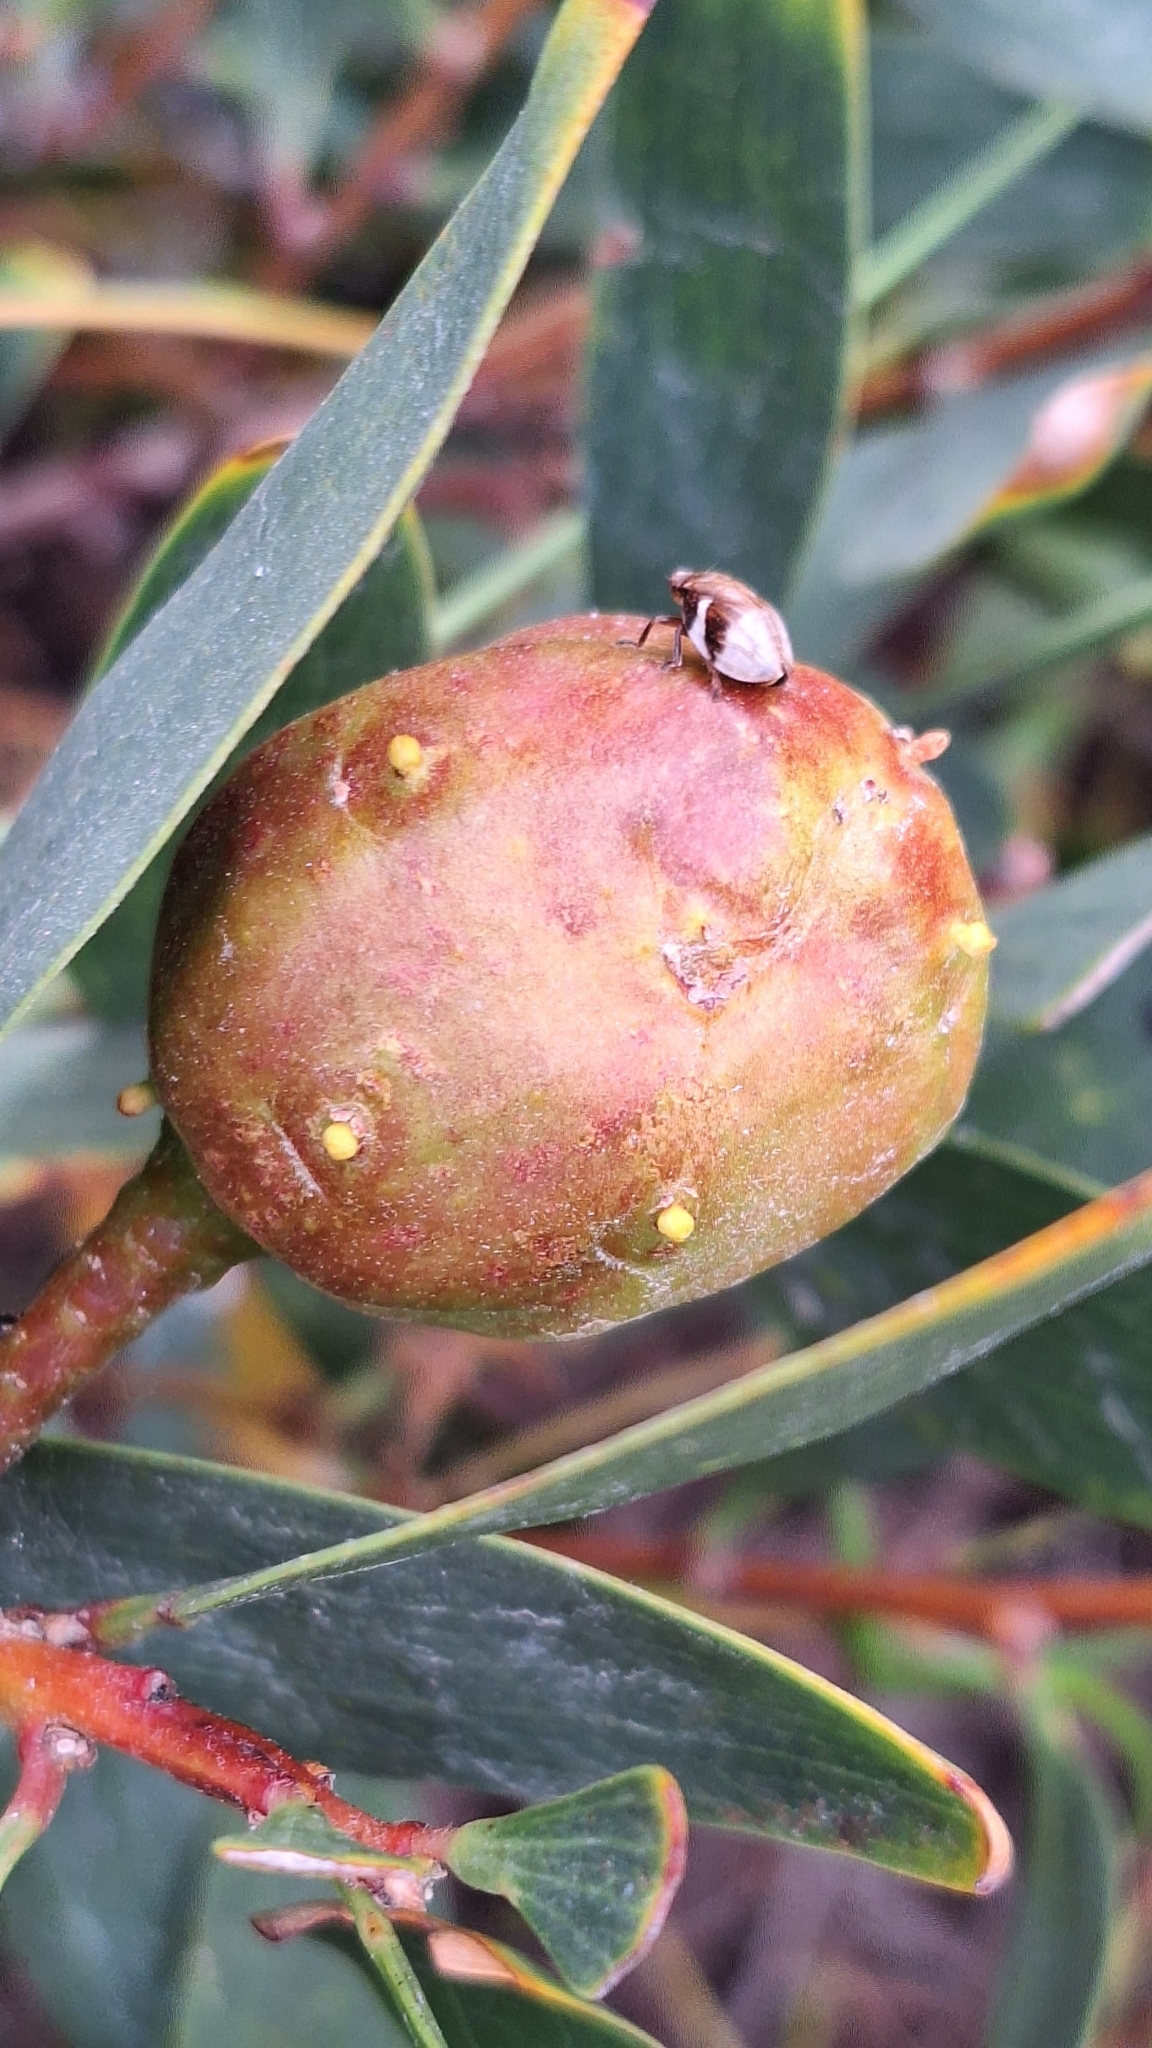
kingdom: Animalia
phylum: Arthropoda
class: Insecta
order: Hymenoptera
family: Pteromalidae
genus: Trichilogaster
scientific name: Trichilogaster acaciaelongifoliae
